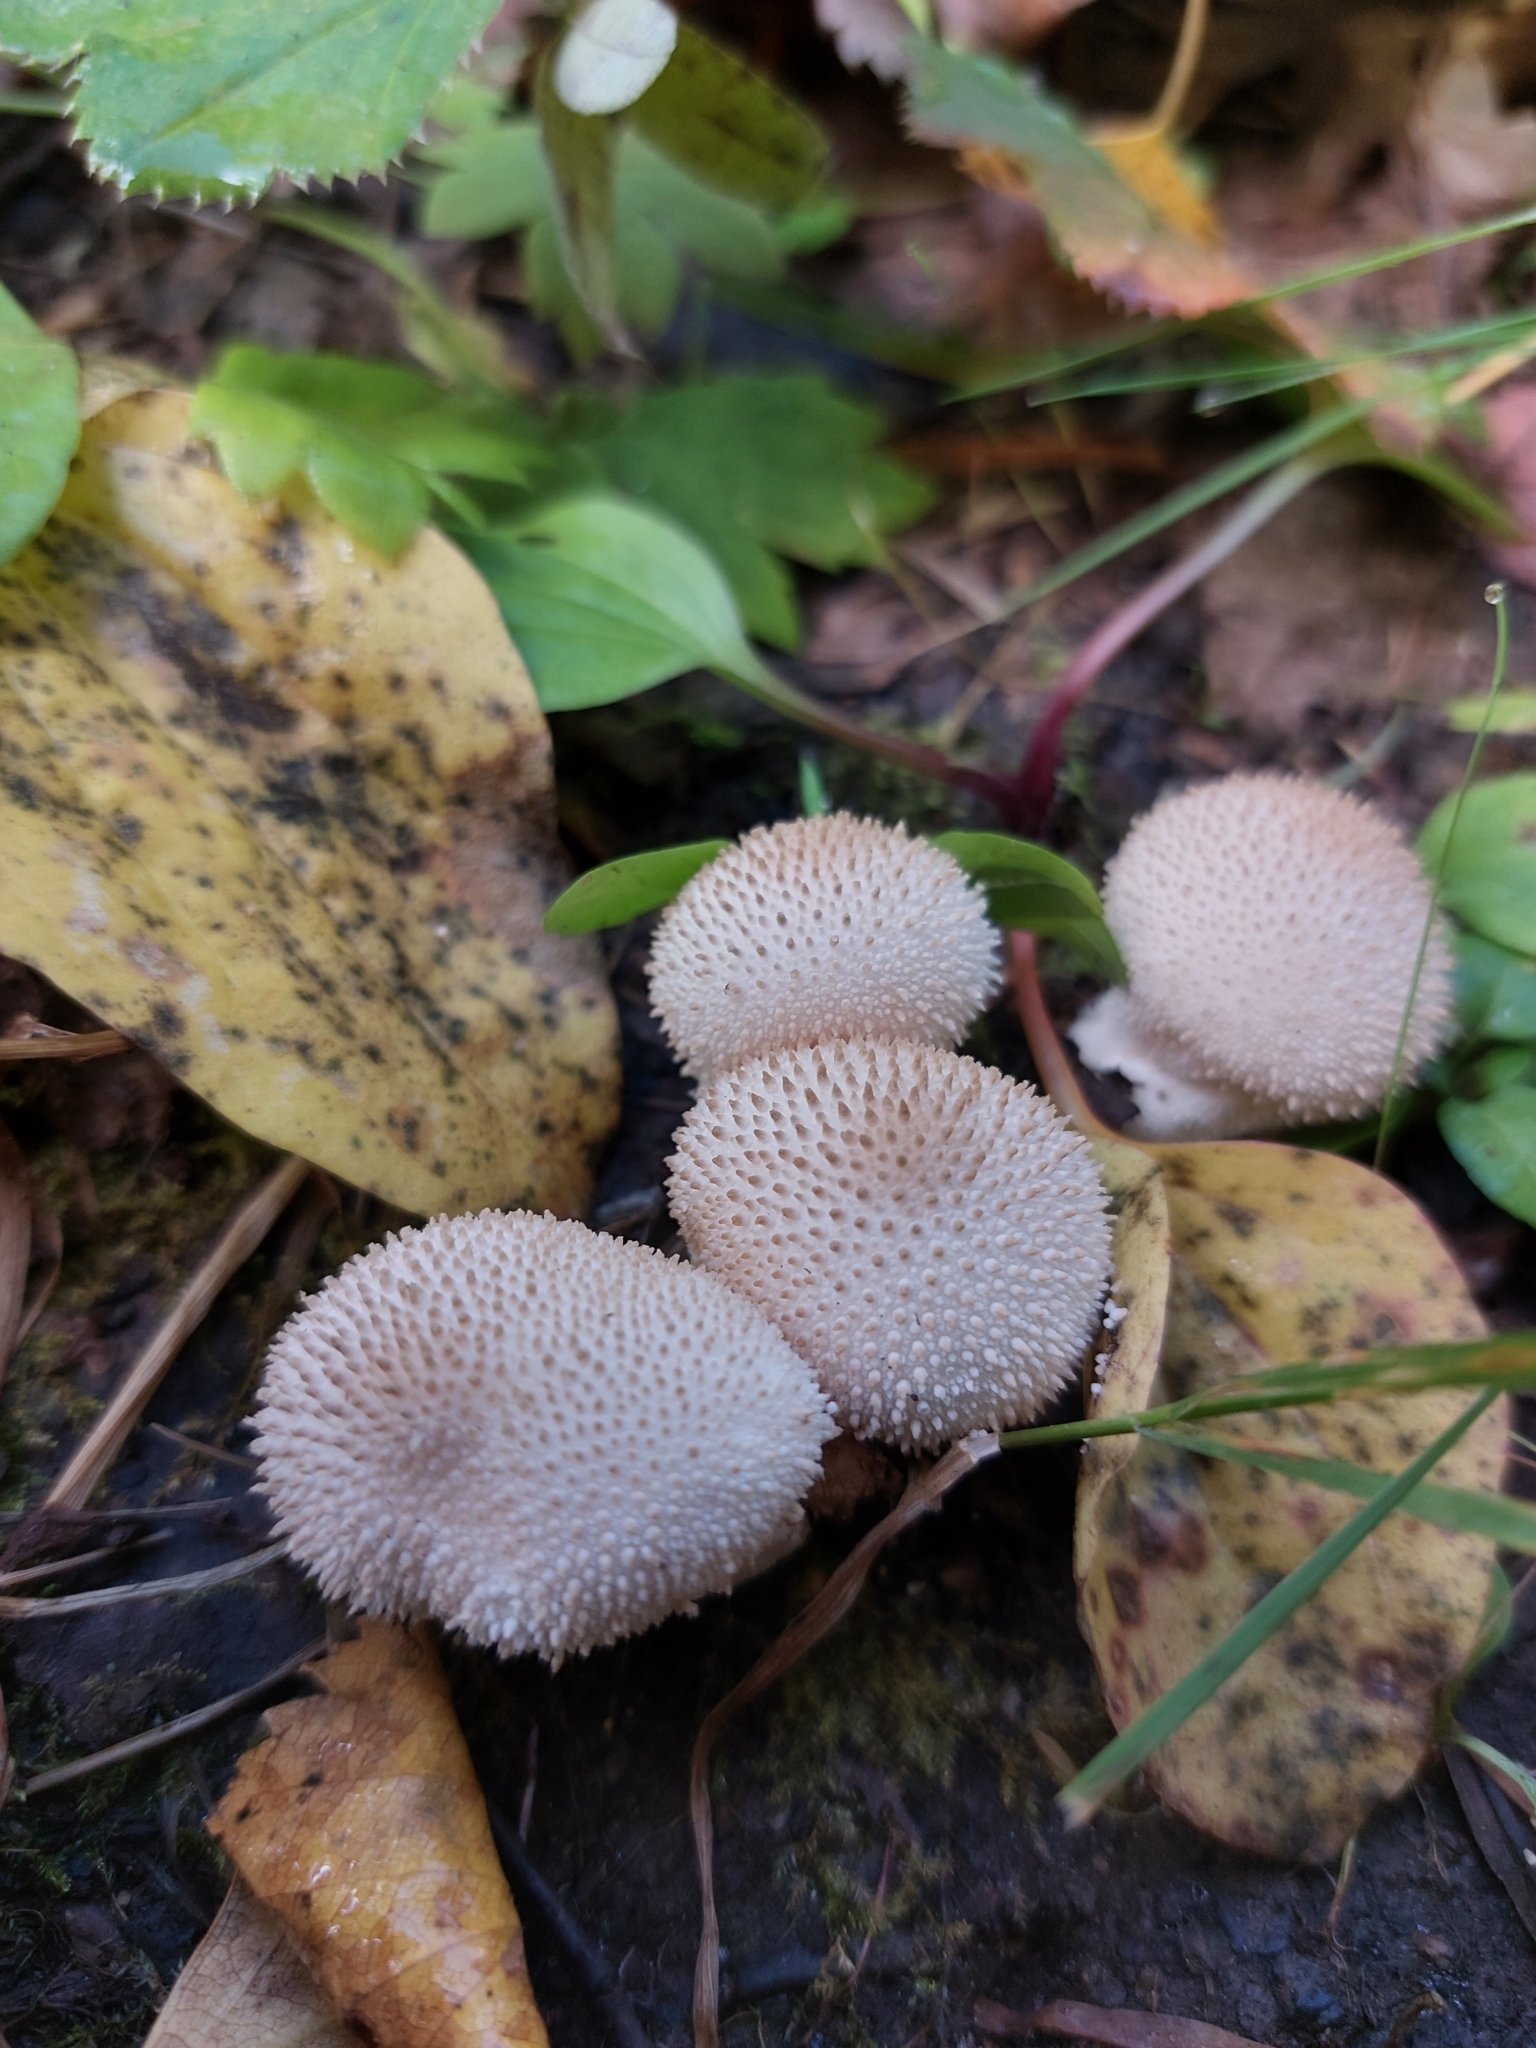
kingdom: Fungi
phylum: Basidiomycota
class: Agaricomycetes
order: Agaricales
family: Lycoperdaceae
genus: Lycoperdon
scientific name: Lycoperdon perlatum
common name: Common puffball
